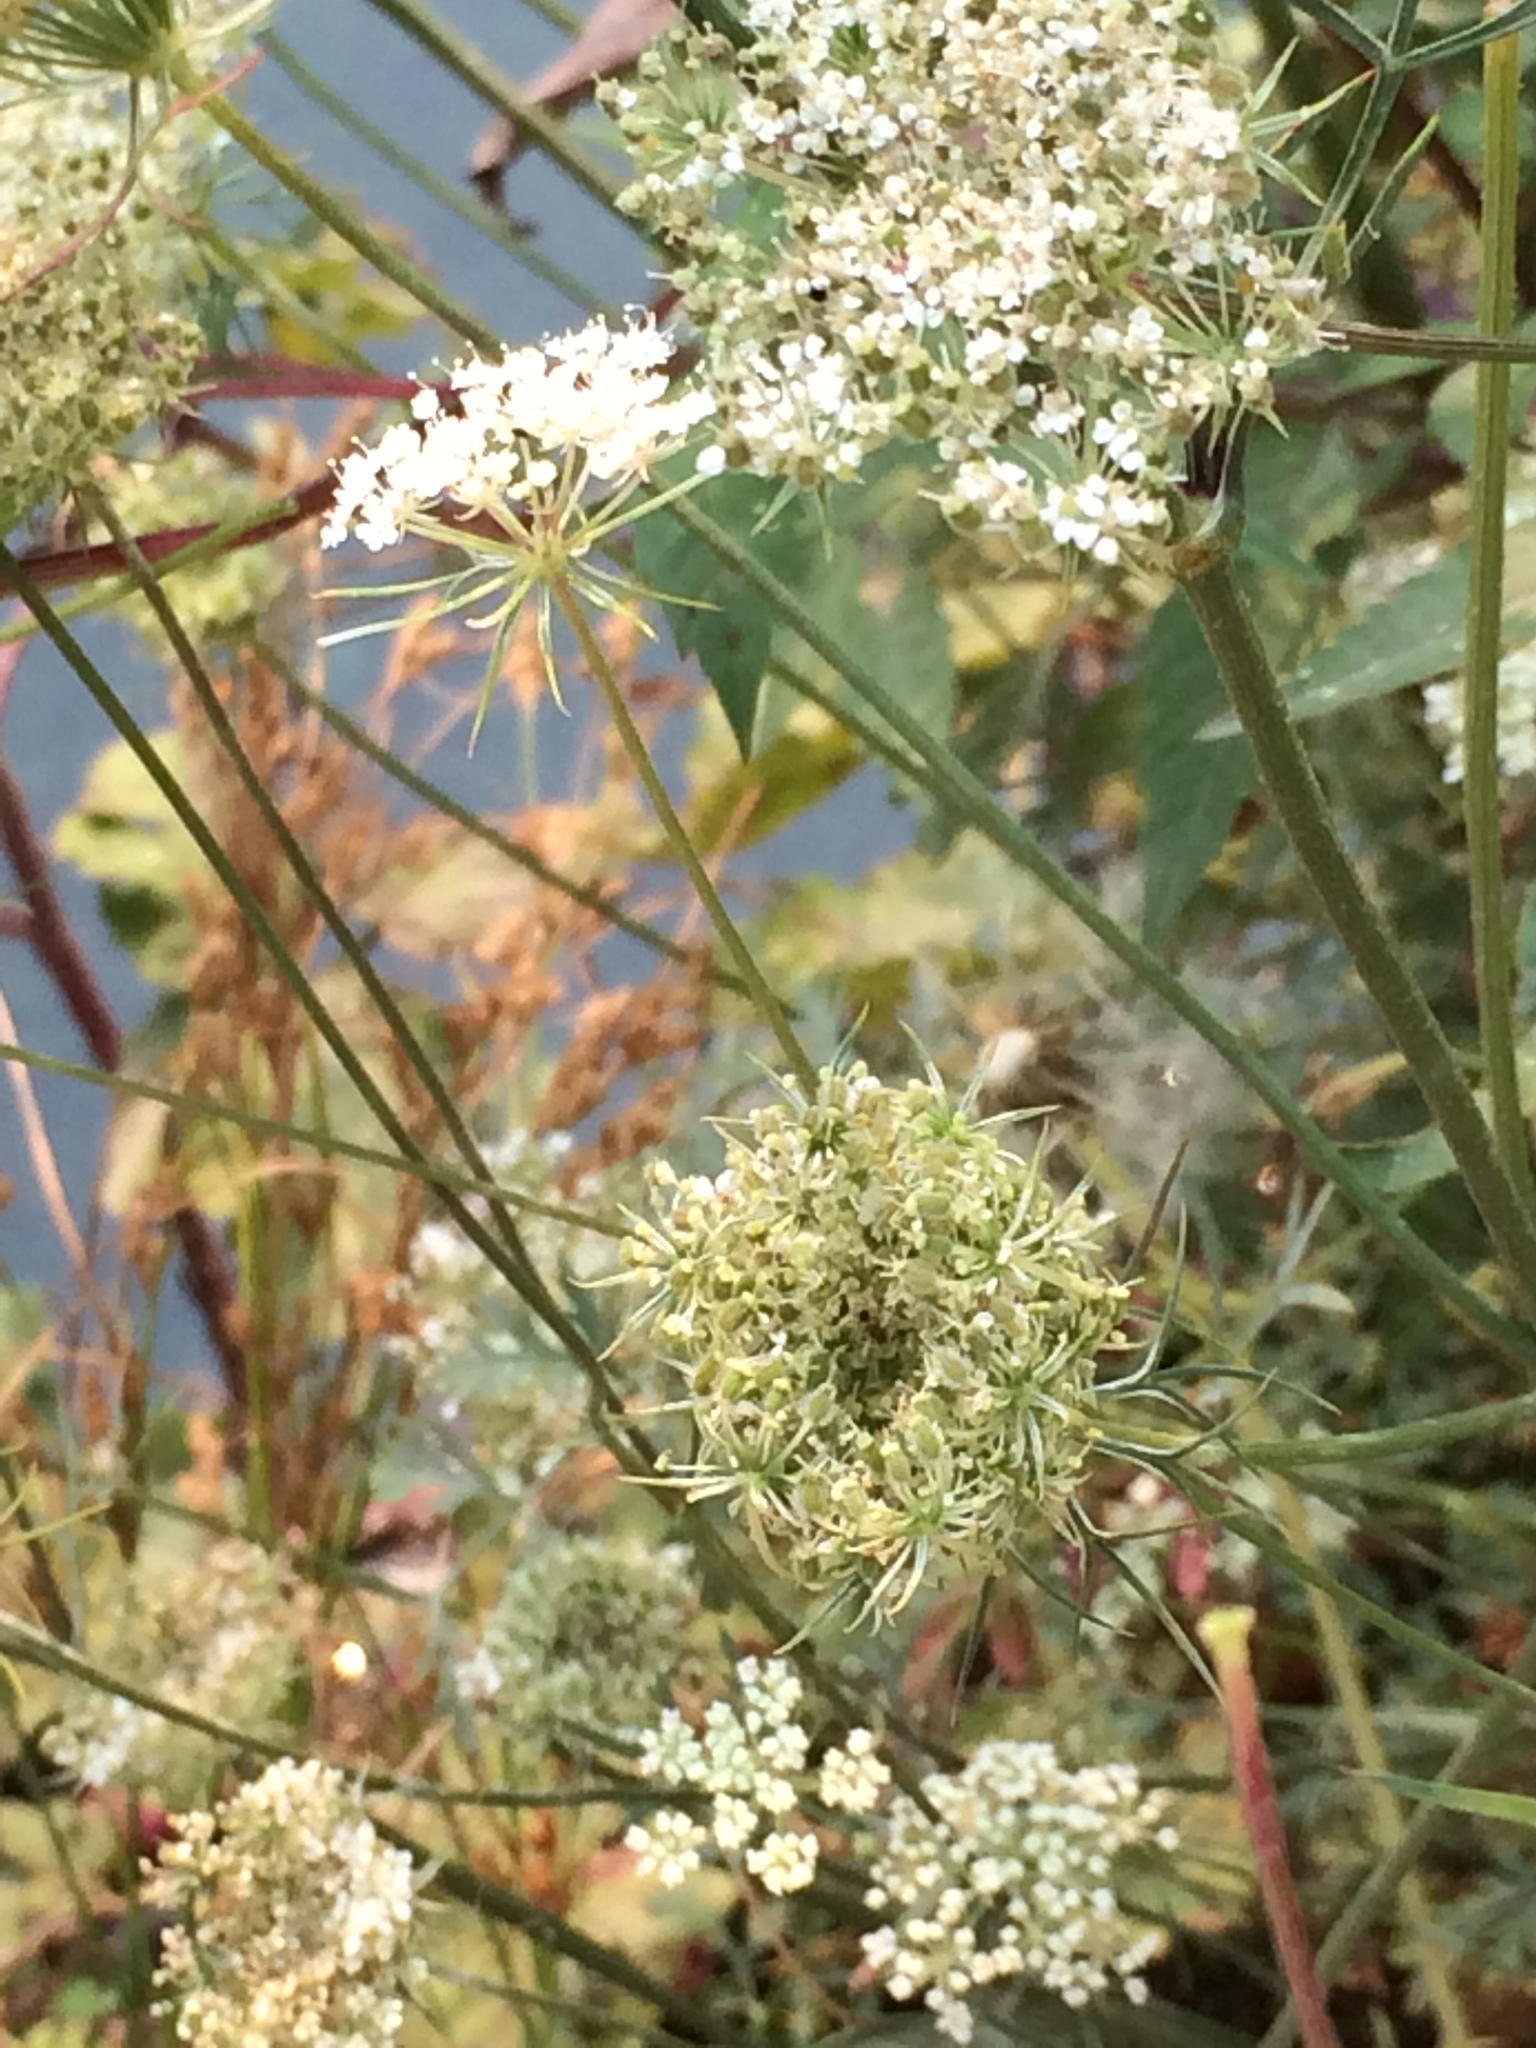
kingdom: Plantae
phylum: Tracheophyta
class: Magnoliopsida
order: Apiales
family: Apiaceae
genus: Daucus
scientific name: Daucus carota
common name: Wild carrot
